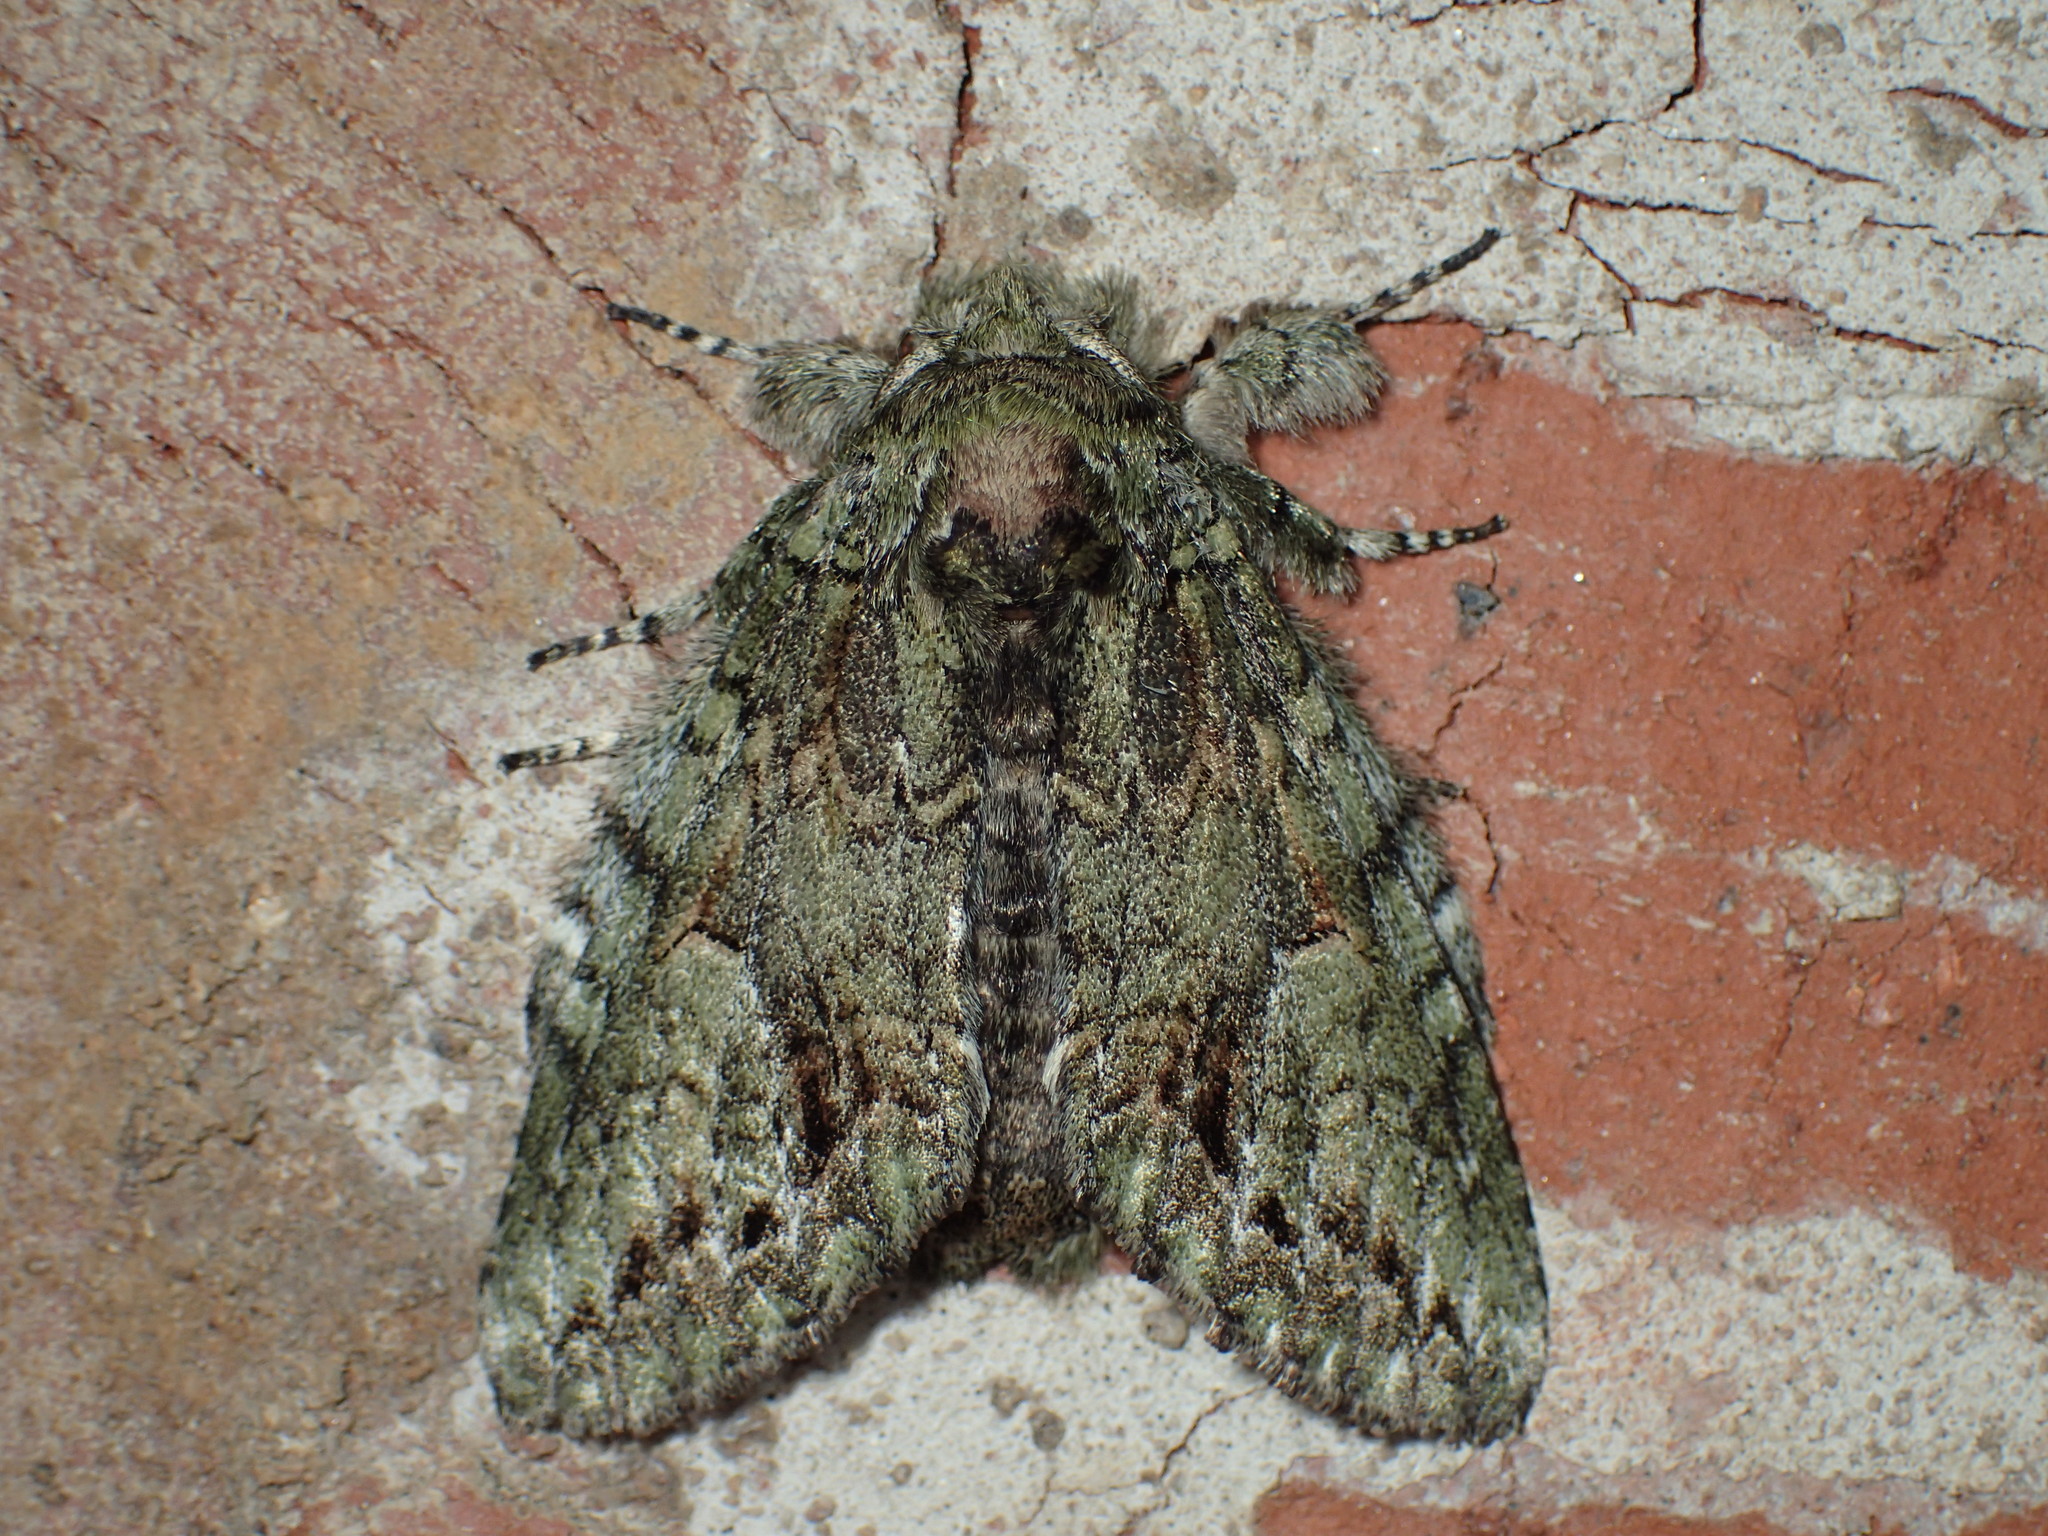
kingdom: Animalia
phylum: Arthropoda
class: Insecta
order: Lepidoptera
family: Notodontidae
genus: Heterocampa
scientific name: Heterocampa
